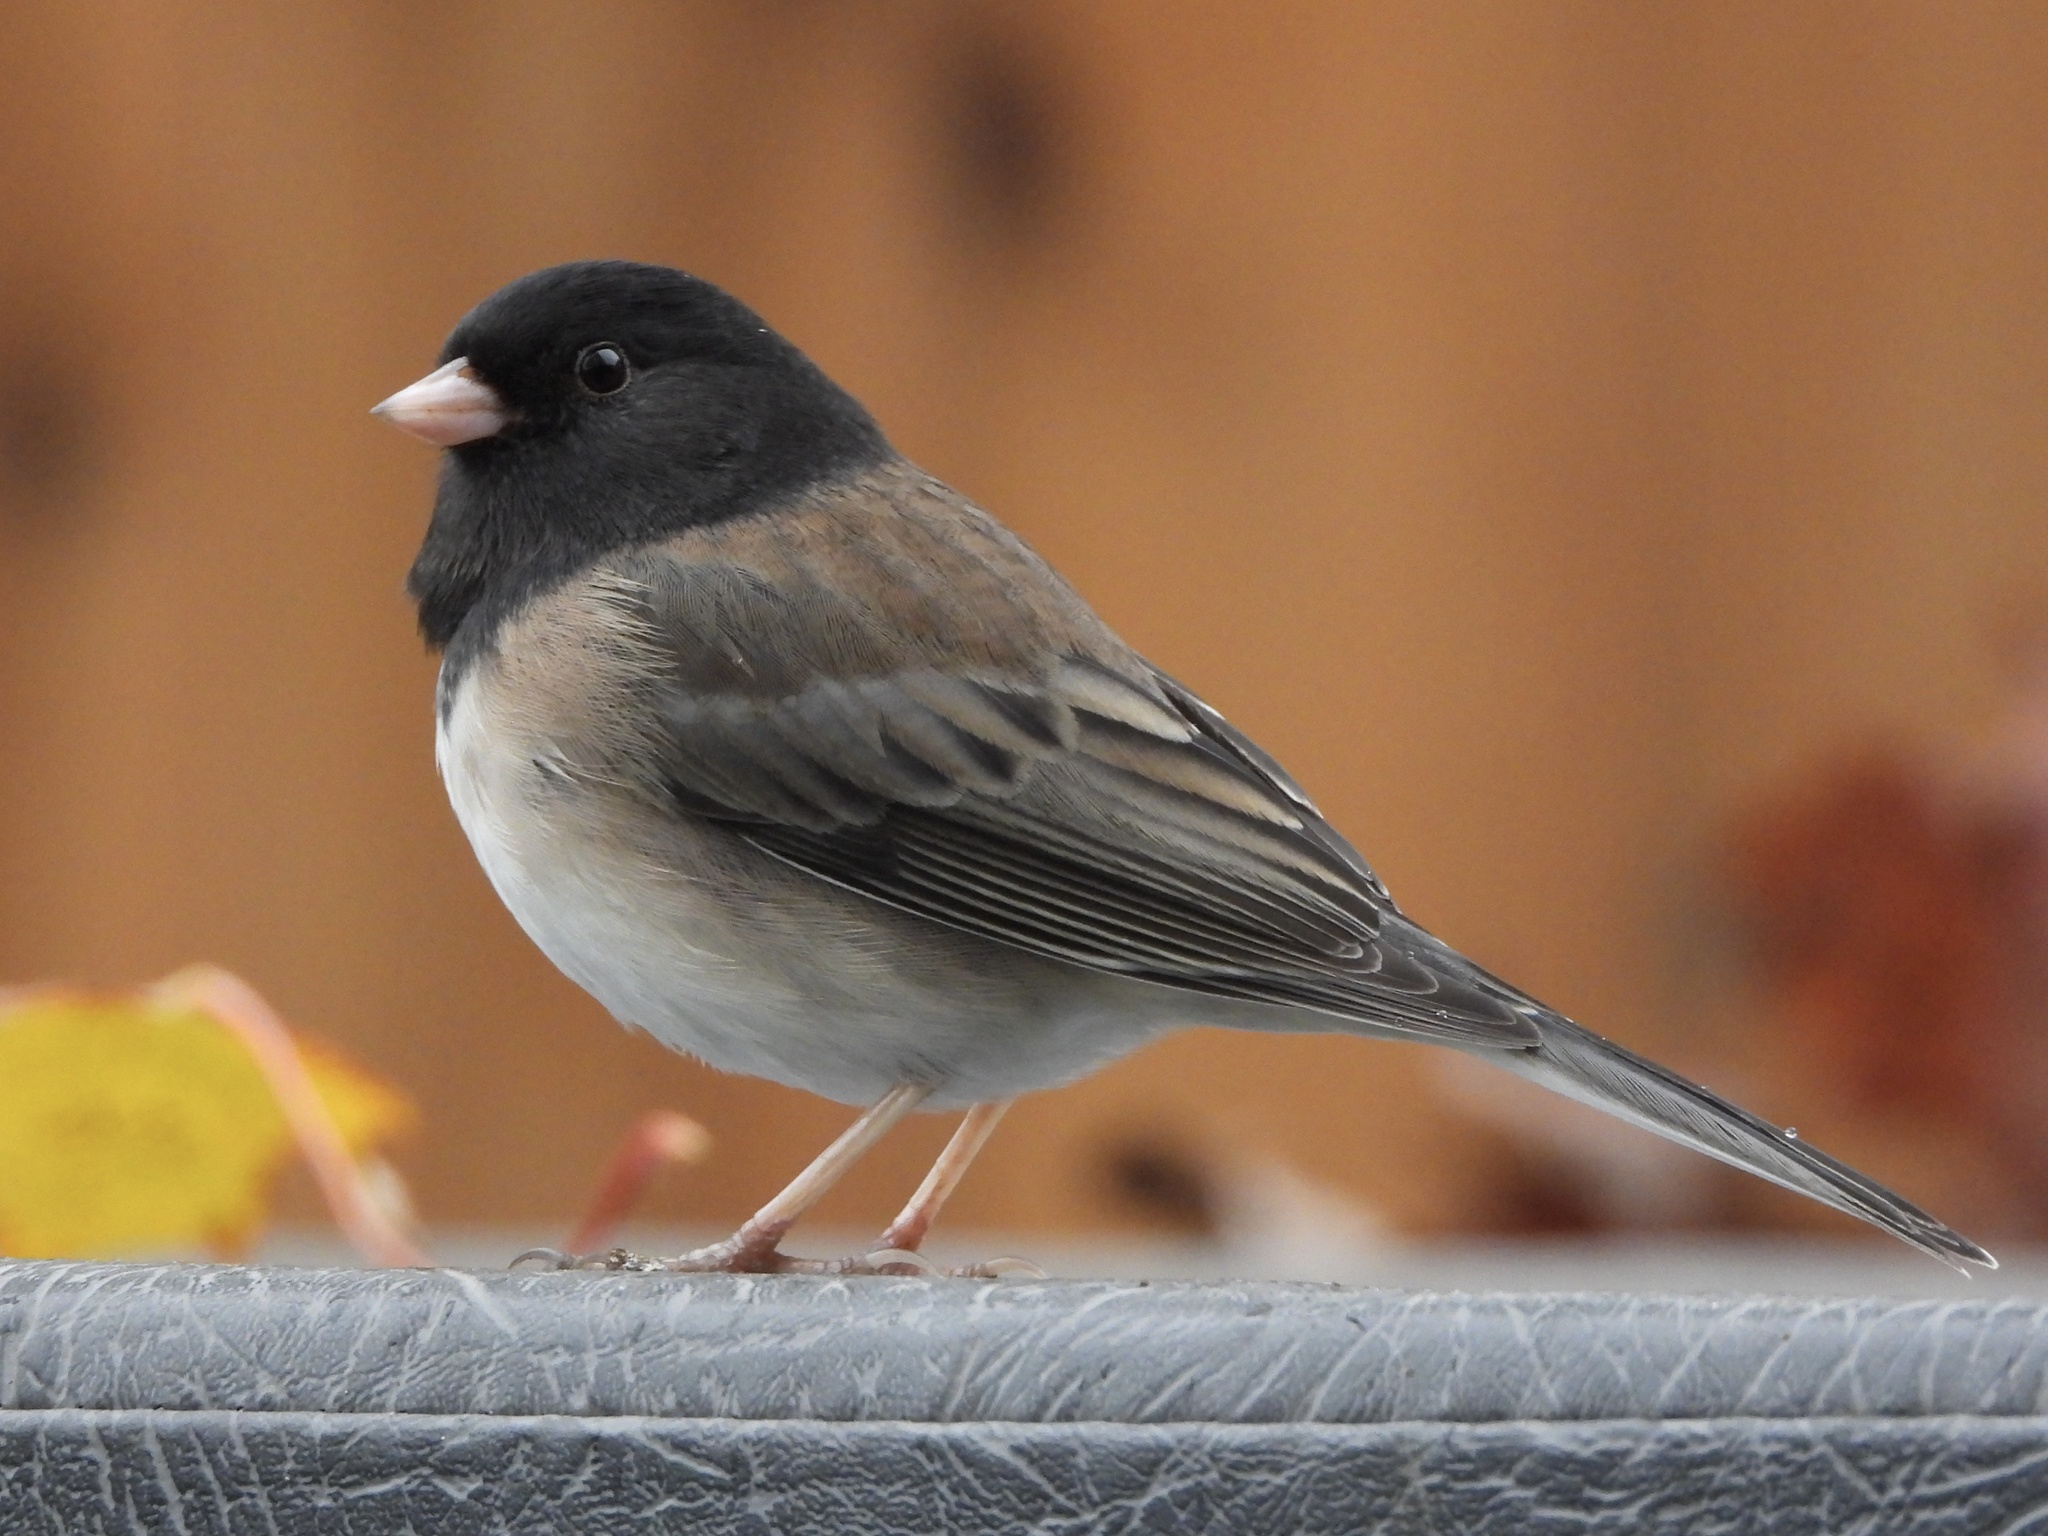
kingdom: Animalia
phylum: Chordata
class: Aves
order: Passeriformes
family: Passerellidae
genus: Junco
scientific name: Junco hyemalis
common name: Dark-eyed junco
